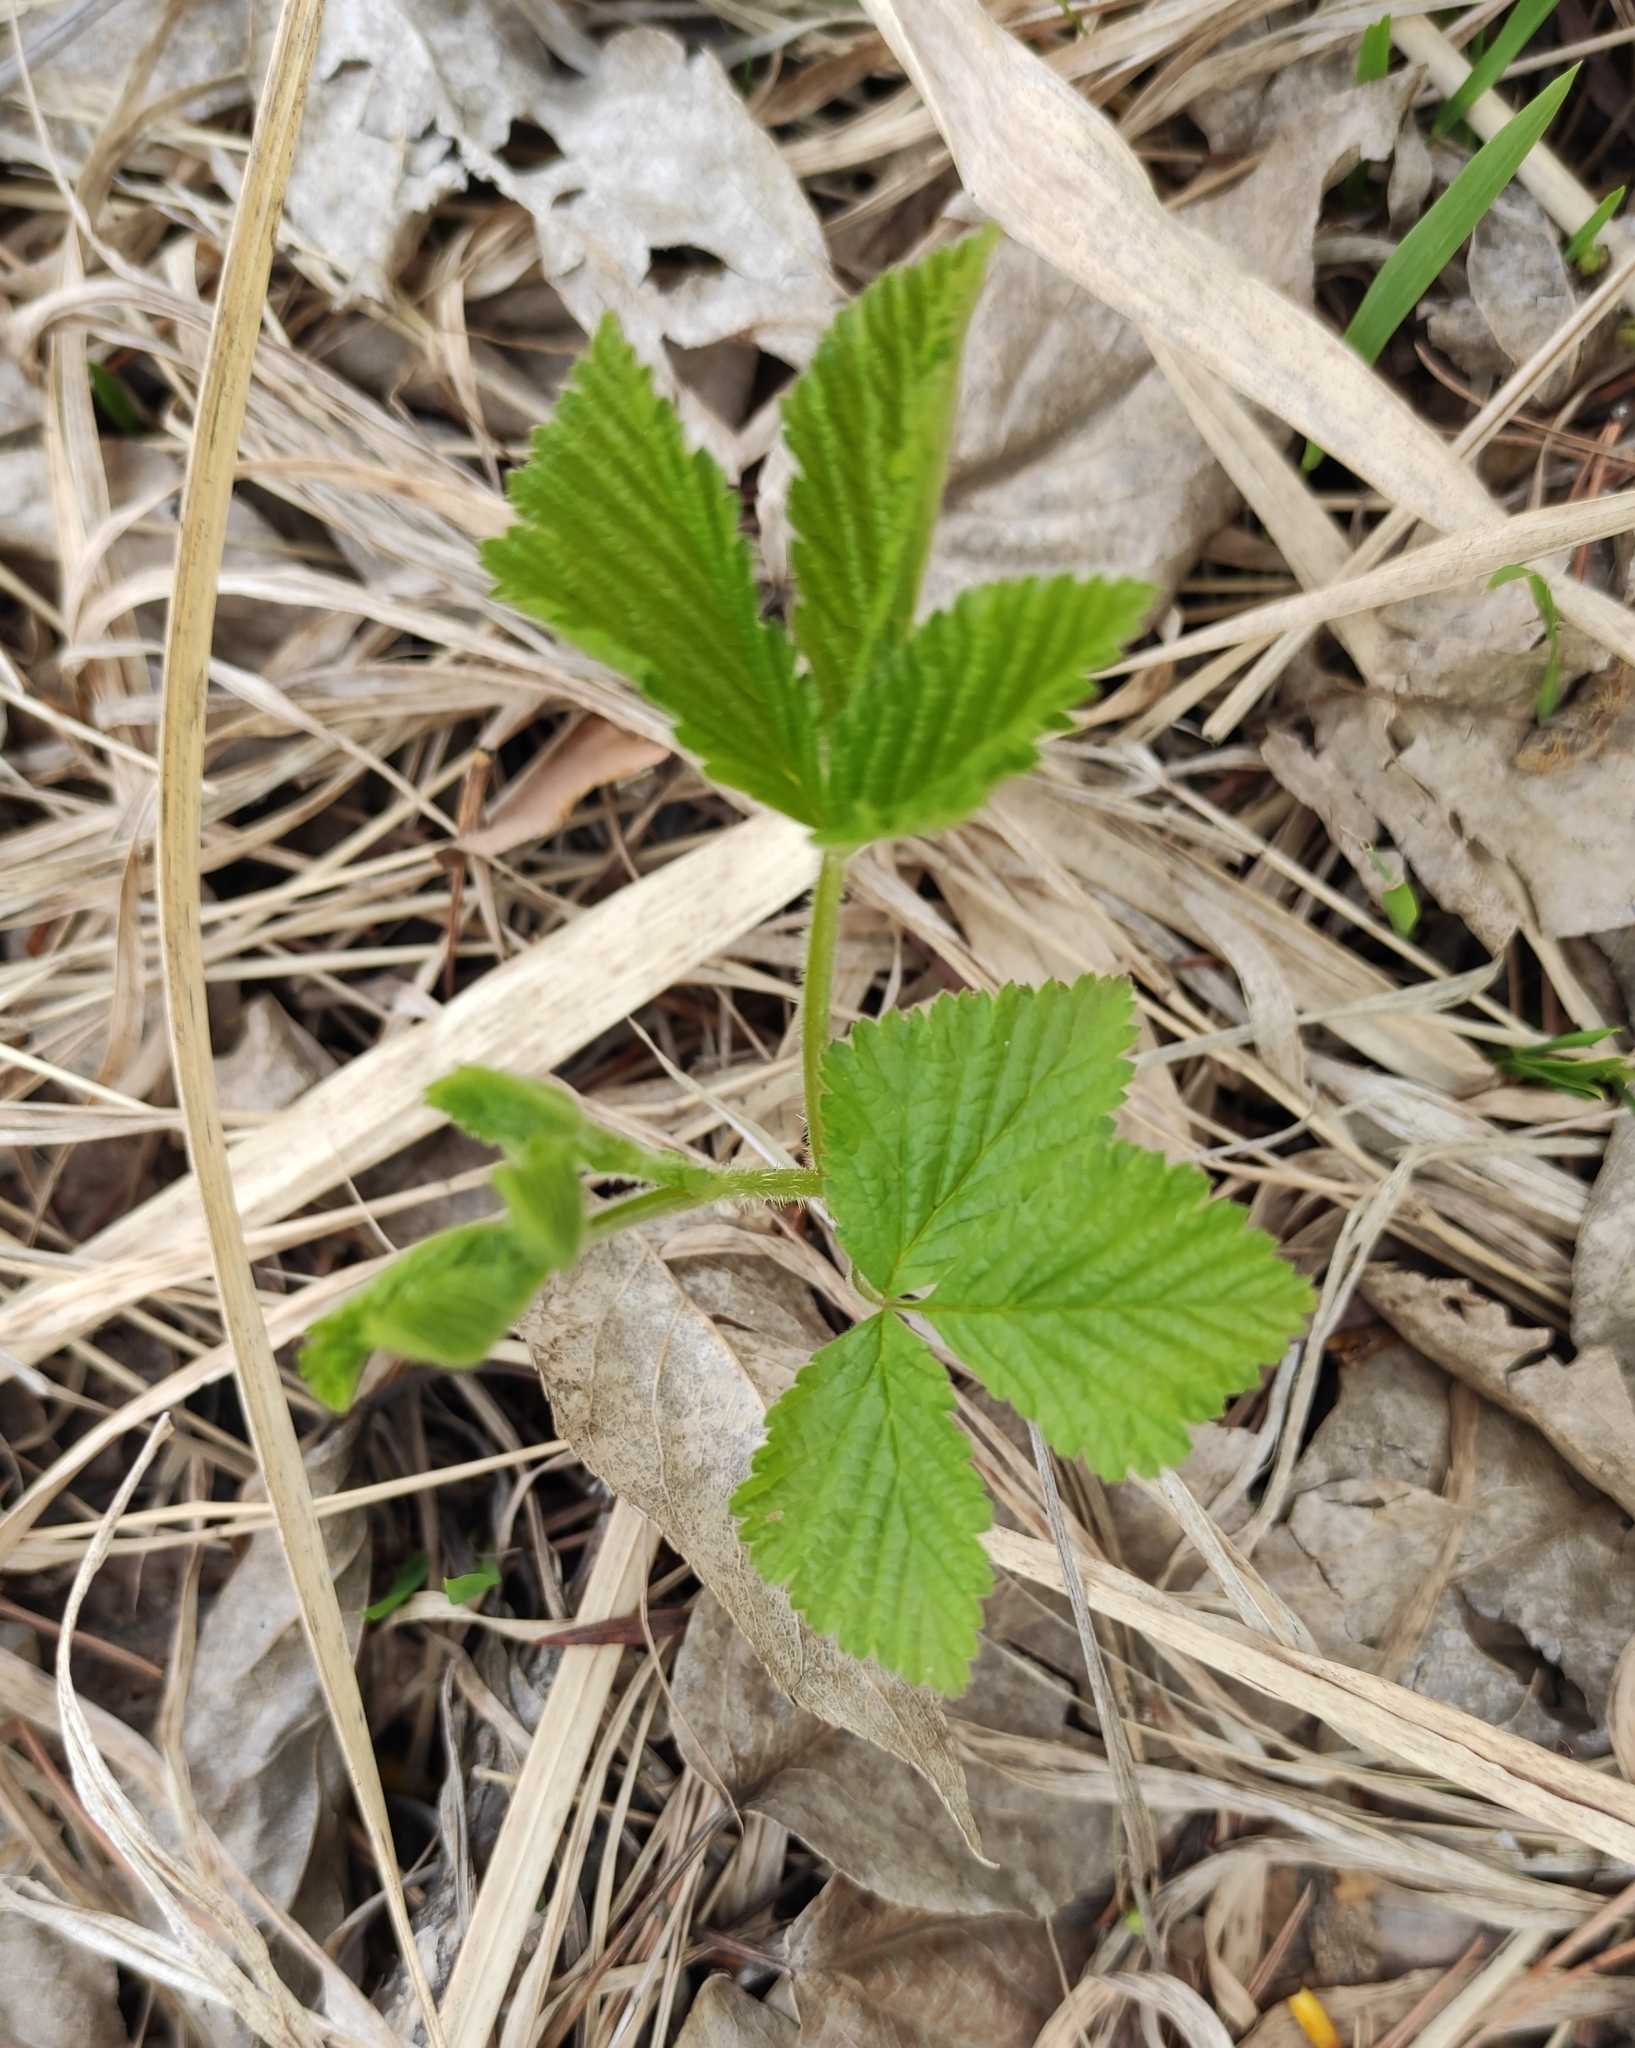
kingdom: Plantae
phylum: Tracheophyta
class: Magnoliopsida
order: Rosales
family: Rosaceae
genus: Rubus
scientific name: Rubus saxatilis
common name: Stone bramble
